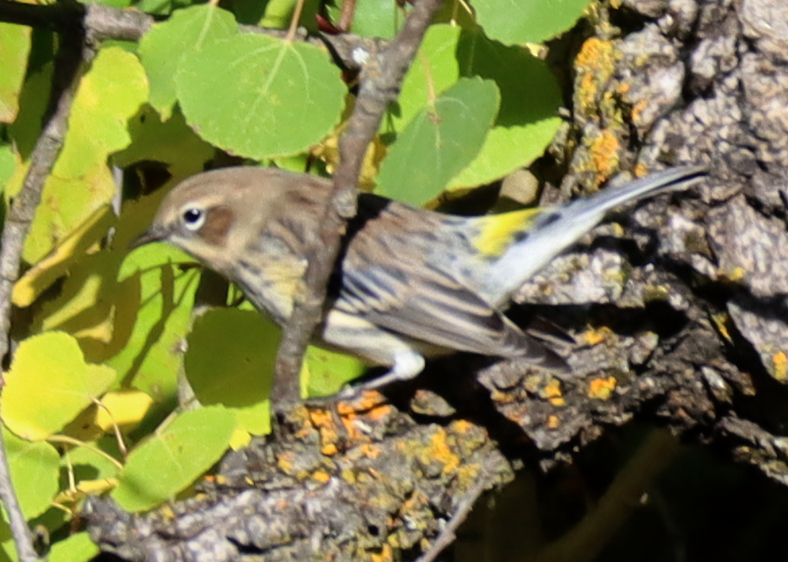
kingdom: Animalia
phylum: Chordata
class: Aves
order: Passeriformes
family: Parulidae
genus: Setophaga
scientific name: Setophaga coronata
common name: Myrtle warbler
